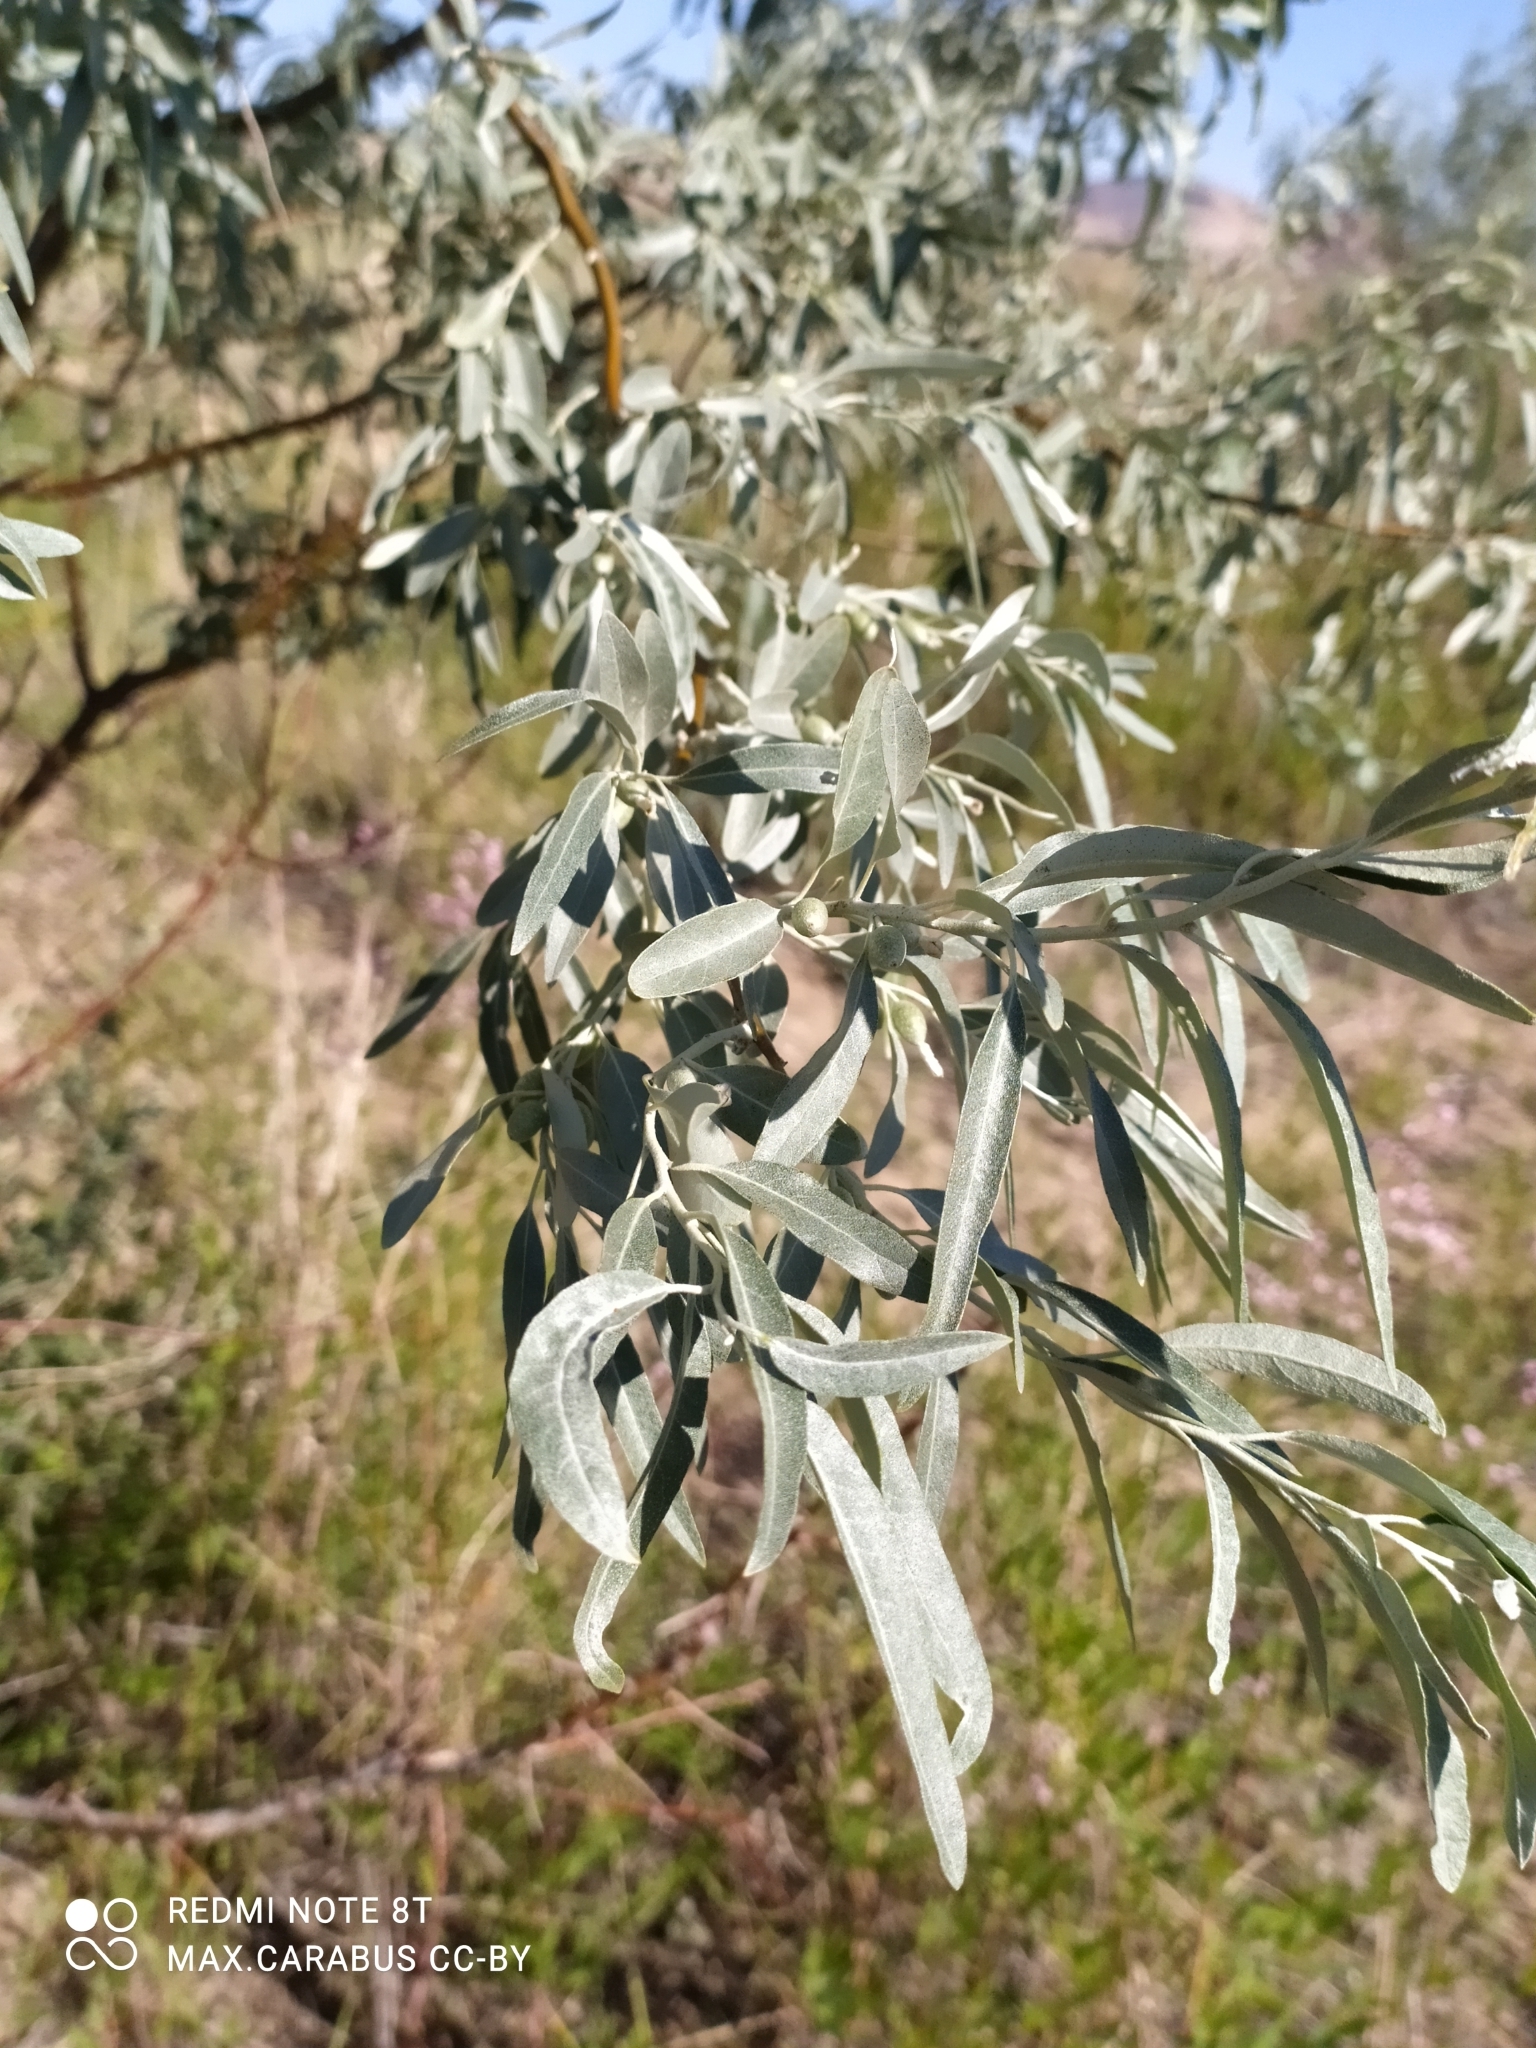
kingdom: Plantae
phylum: Tracheophyta
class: Magnoliopsida
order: Rosales
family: Elaeagnaceae
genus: Elaeagnus
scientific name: Elaeagnus angustifolia
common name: Russian olive
